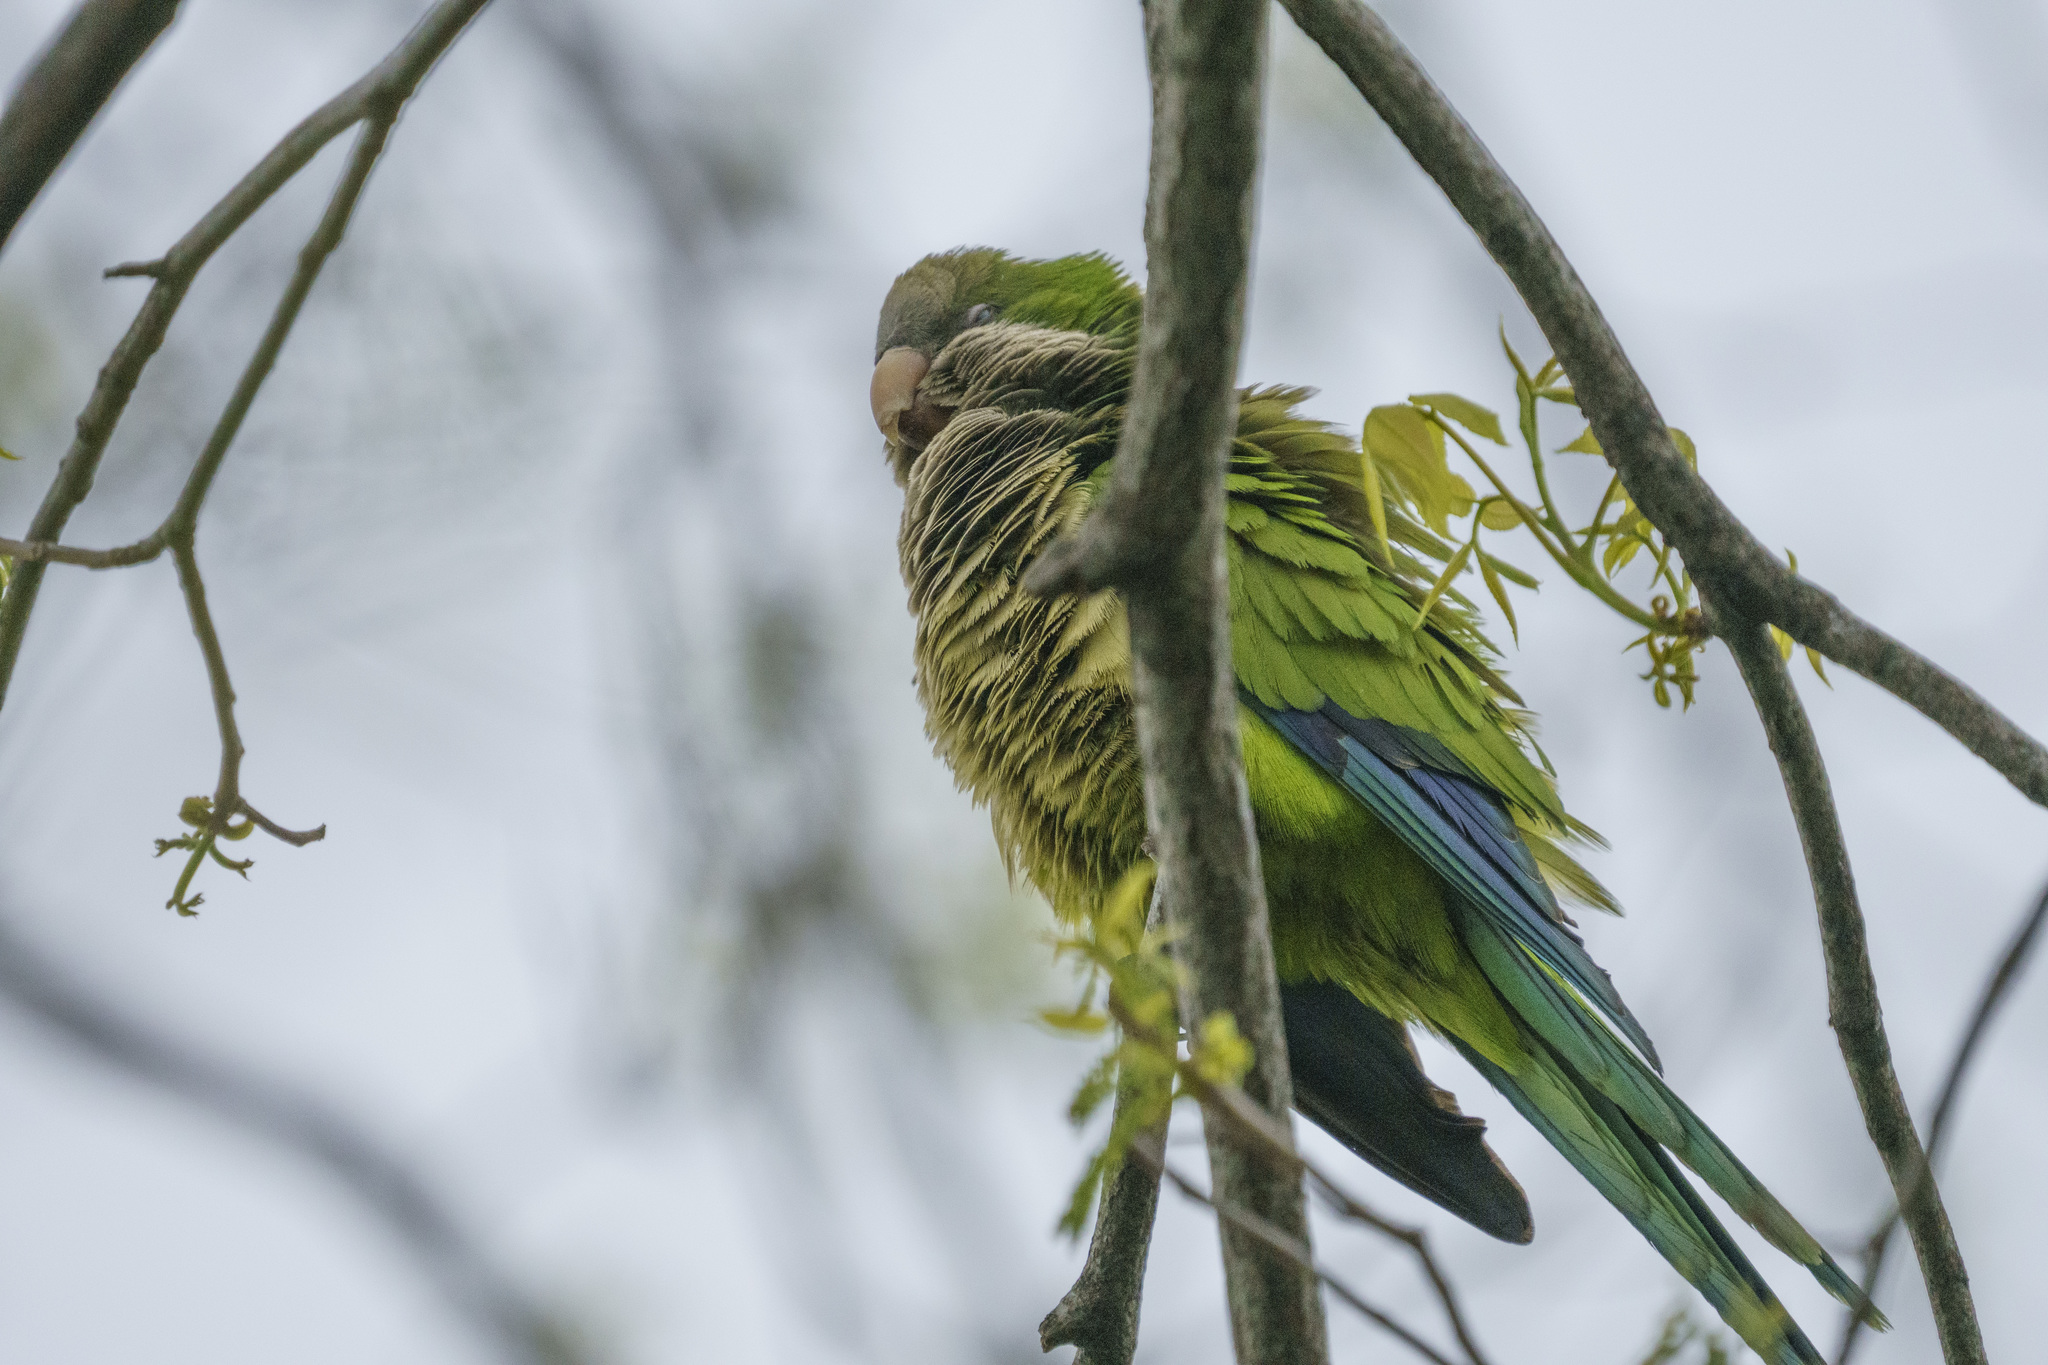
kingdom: Animalia
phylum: Chordata
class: Aves
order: Psittaciformes
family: Psittacidae
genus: Myiopsitta
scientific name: Myiopsitta monachus
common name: Monk parakeet
